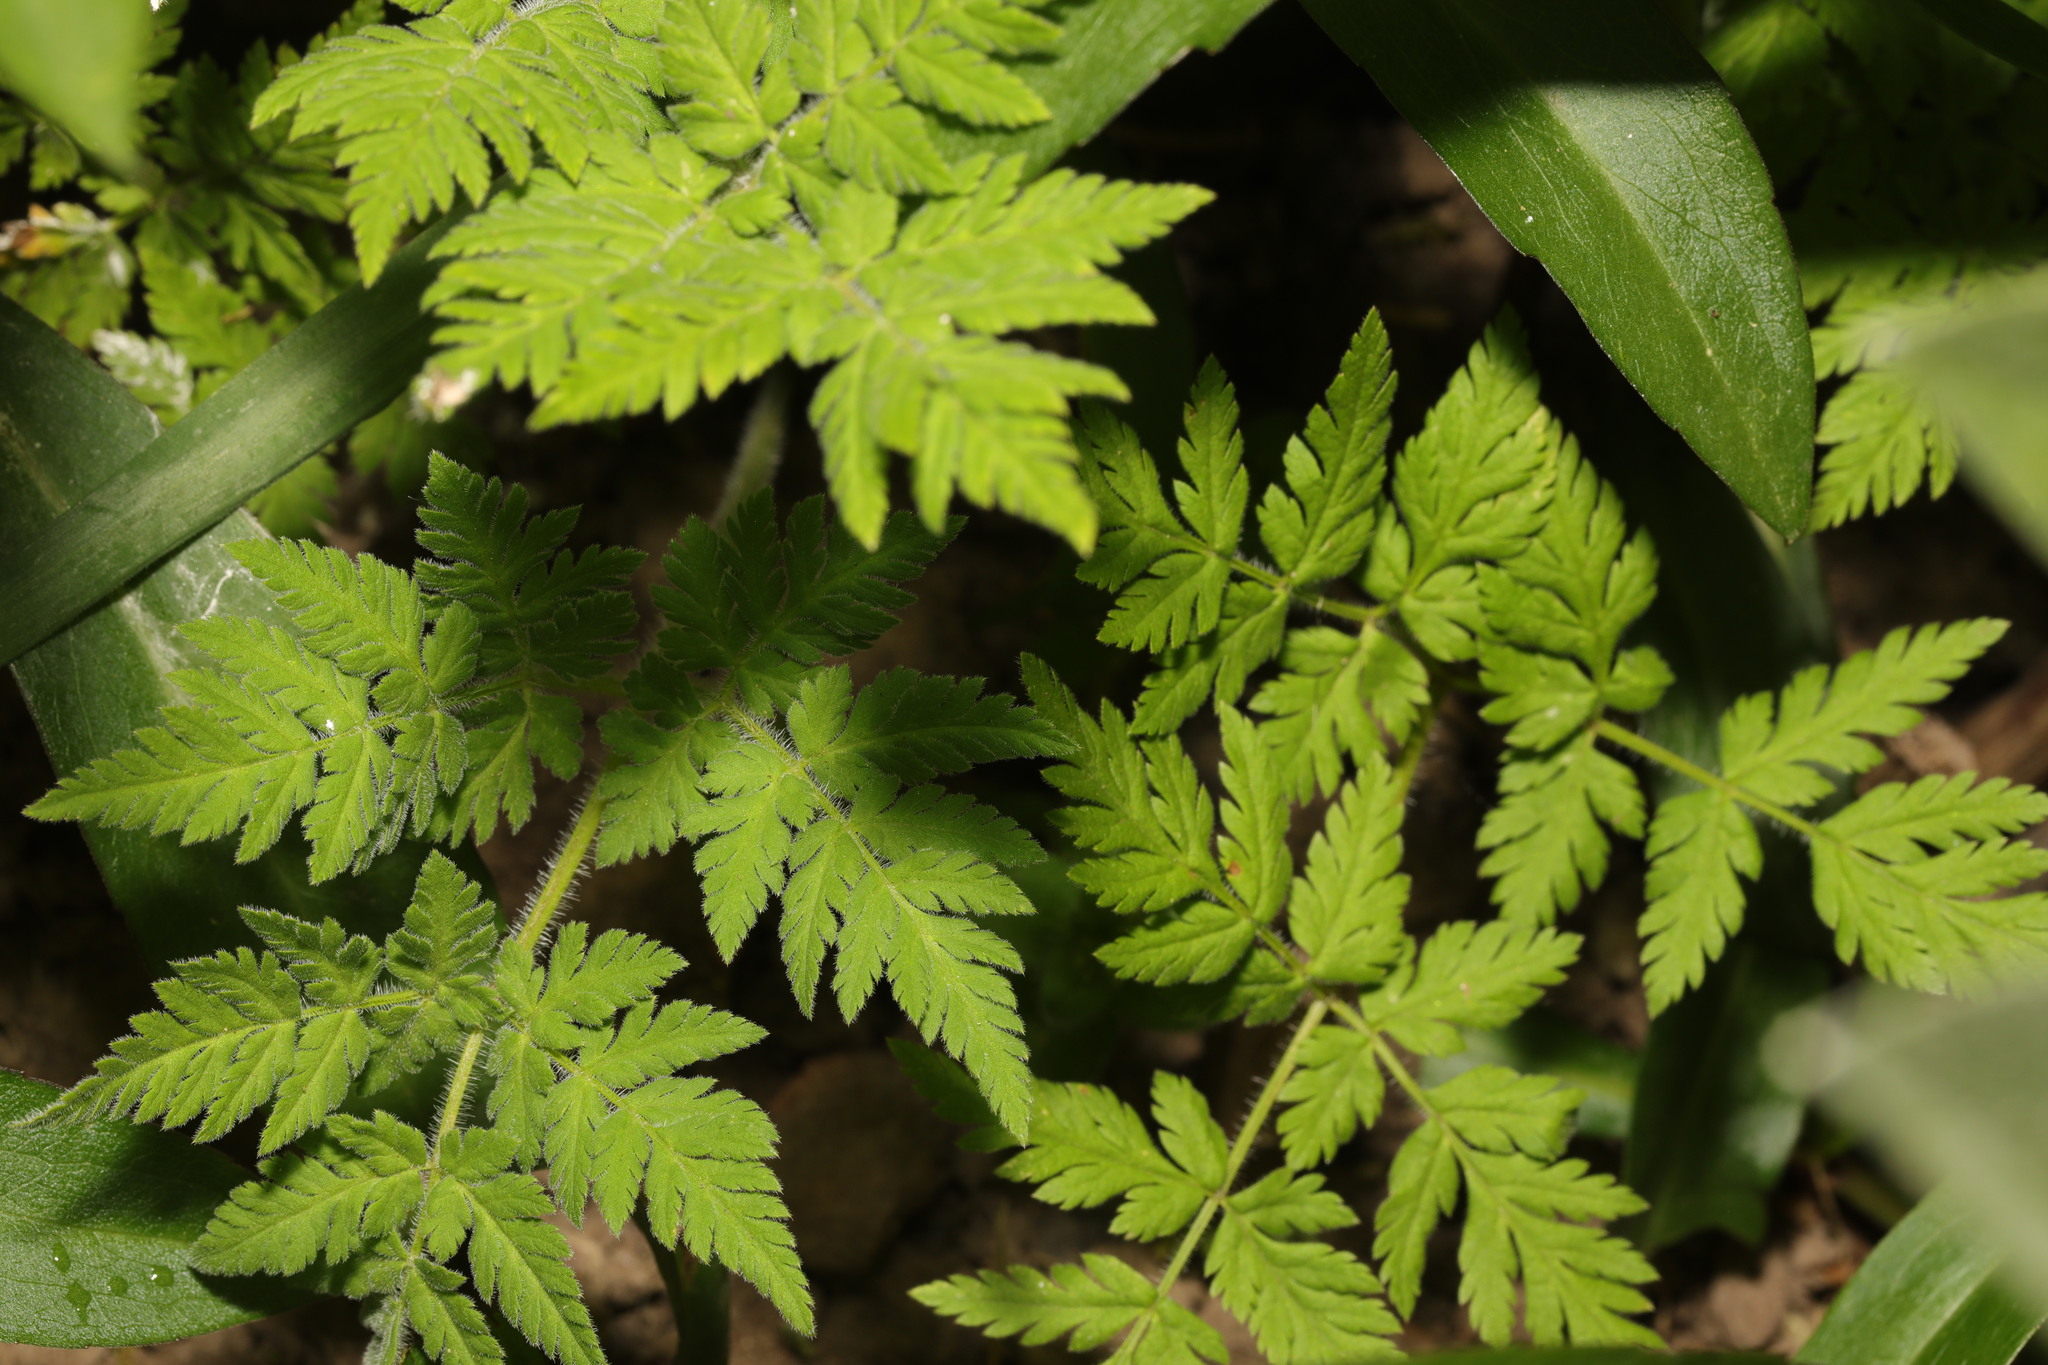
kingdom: Plantae
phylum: Tracheophyta
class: Magnoliopsida
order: Apiales
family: Apiaceae
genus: Myrrhis
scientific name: Myrrhis odorata
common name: Sweet cicely
